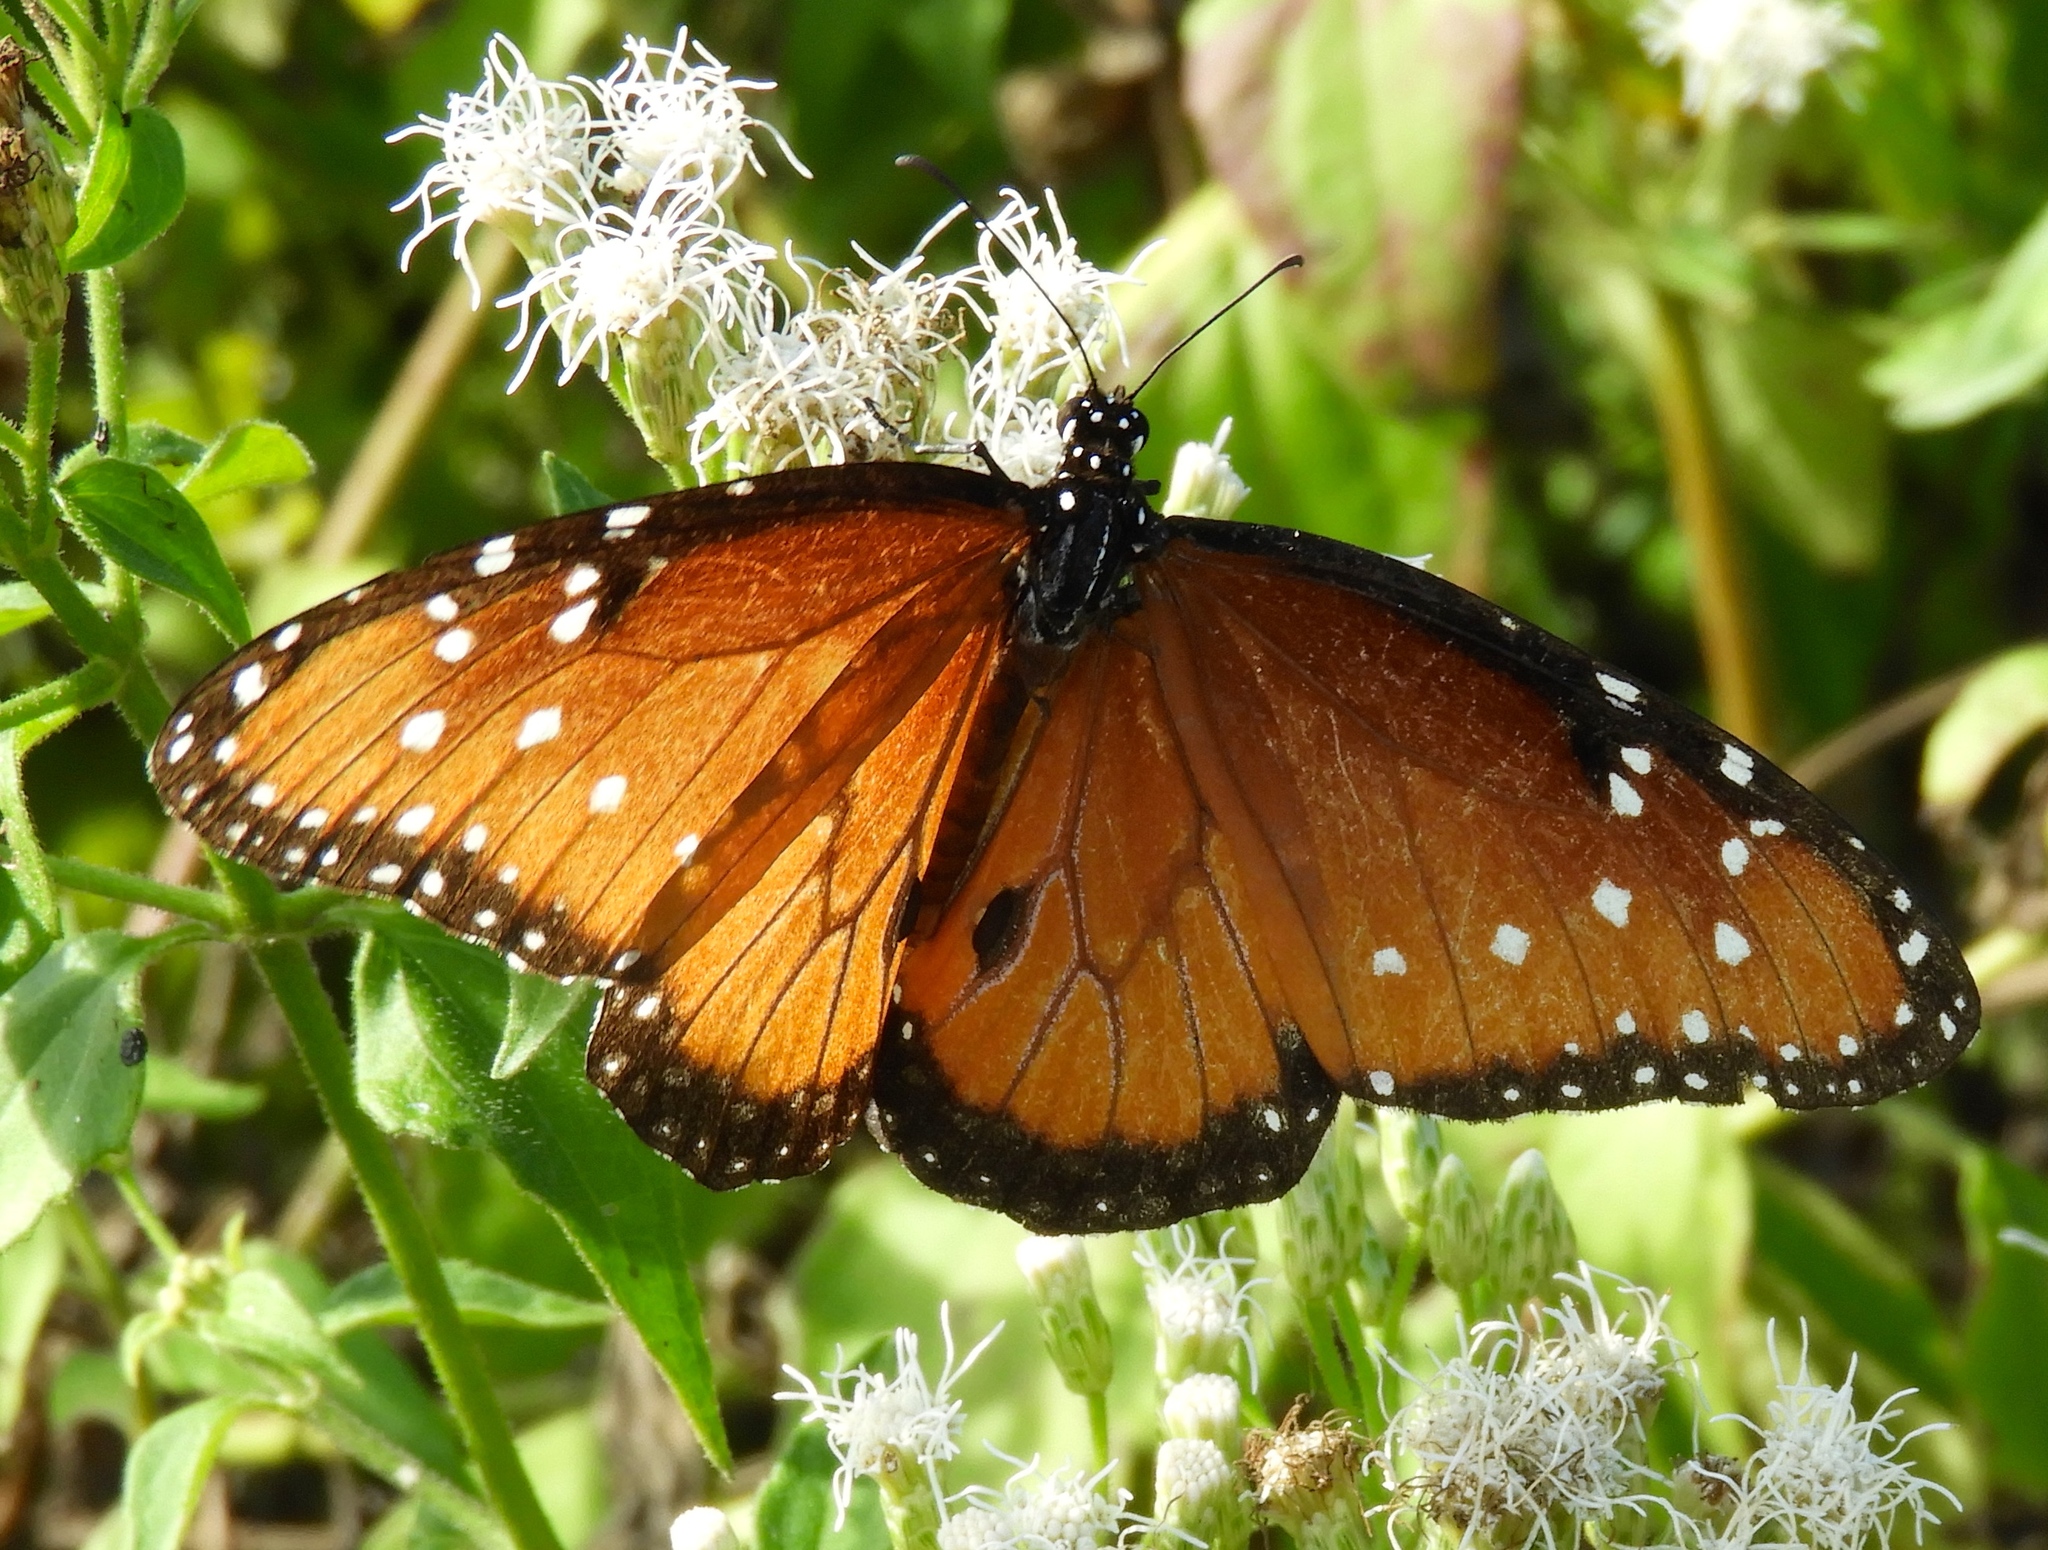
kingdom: Animalia
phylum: Arthropoda
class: Insecta
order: Lepidoptera
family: Nymphalidae
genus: Danaus
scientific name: Danaus gilippus
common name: Queen
